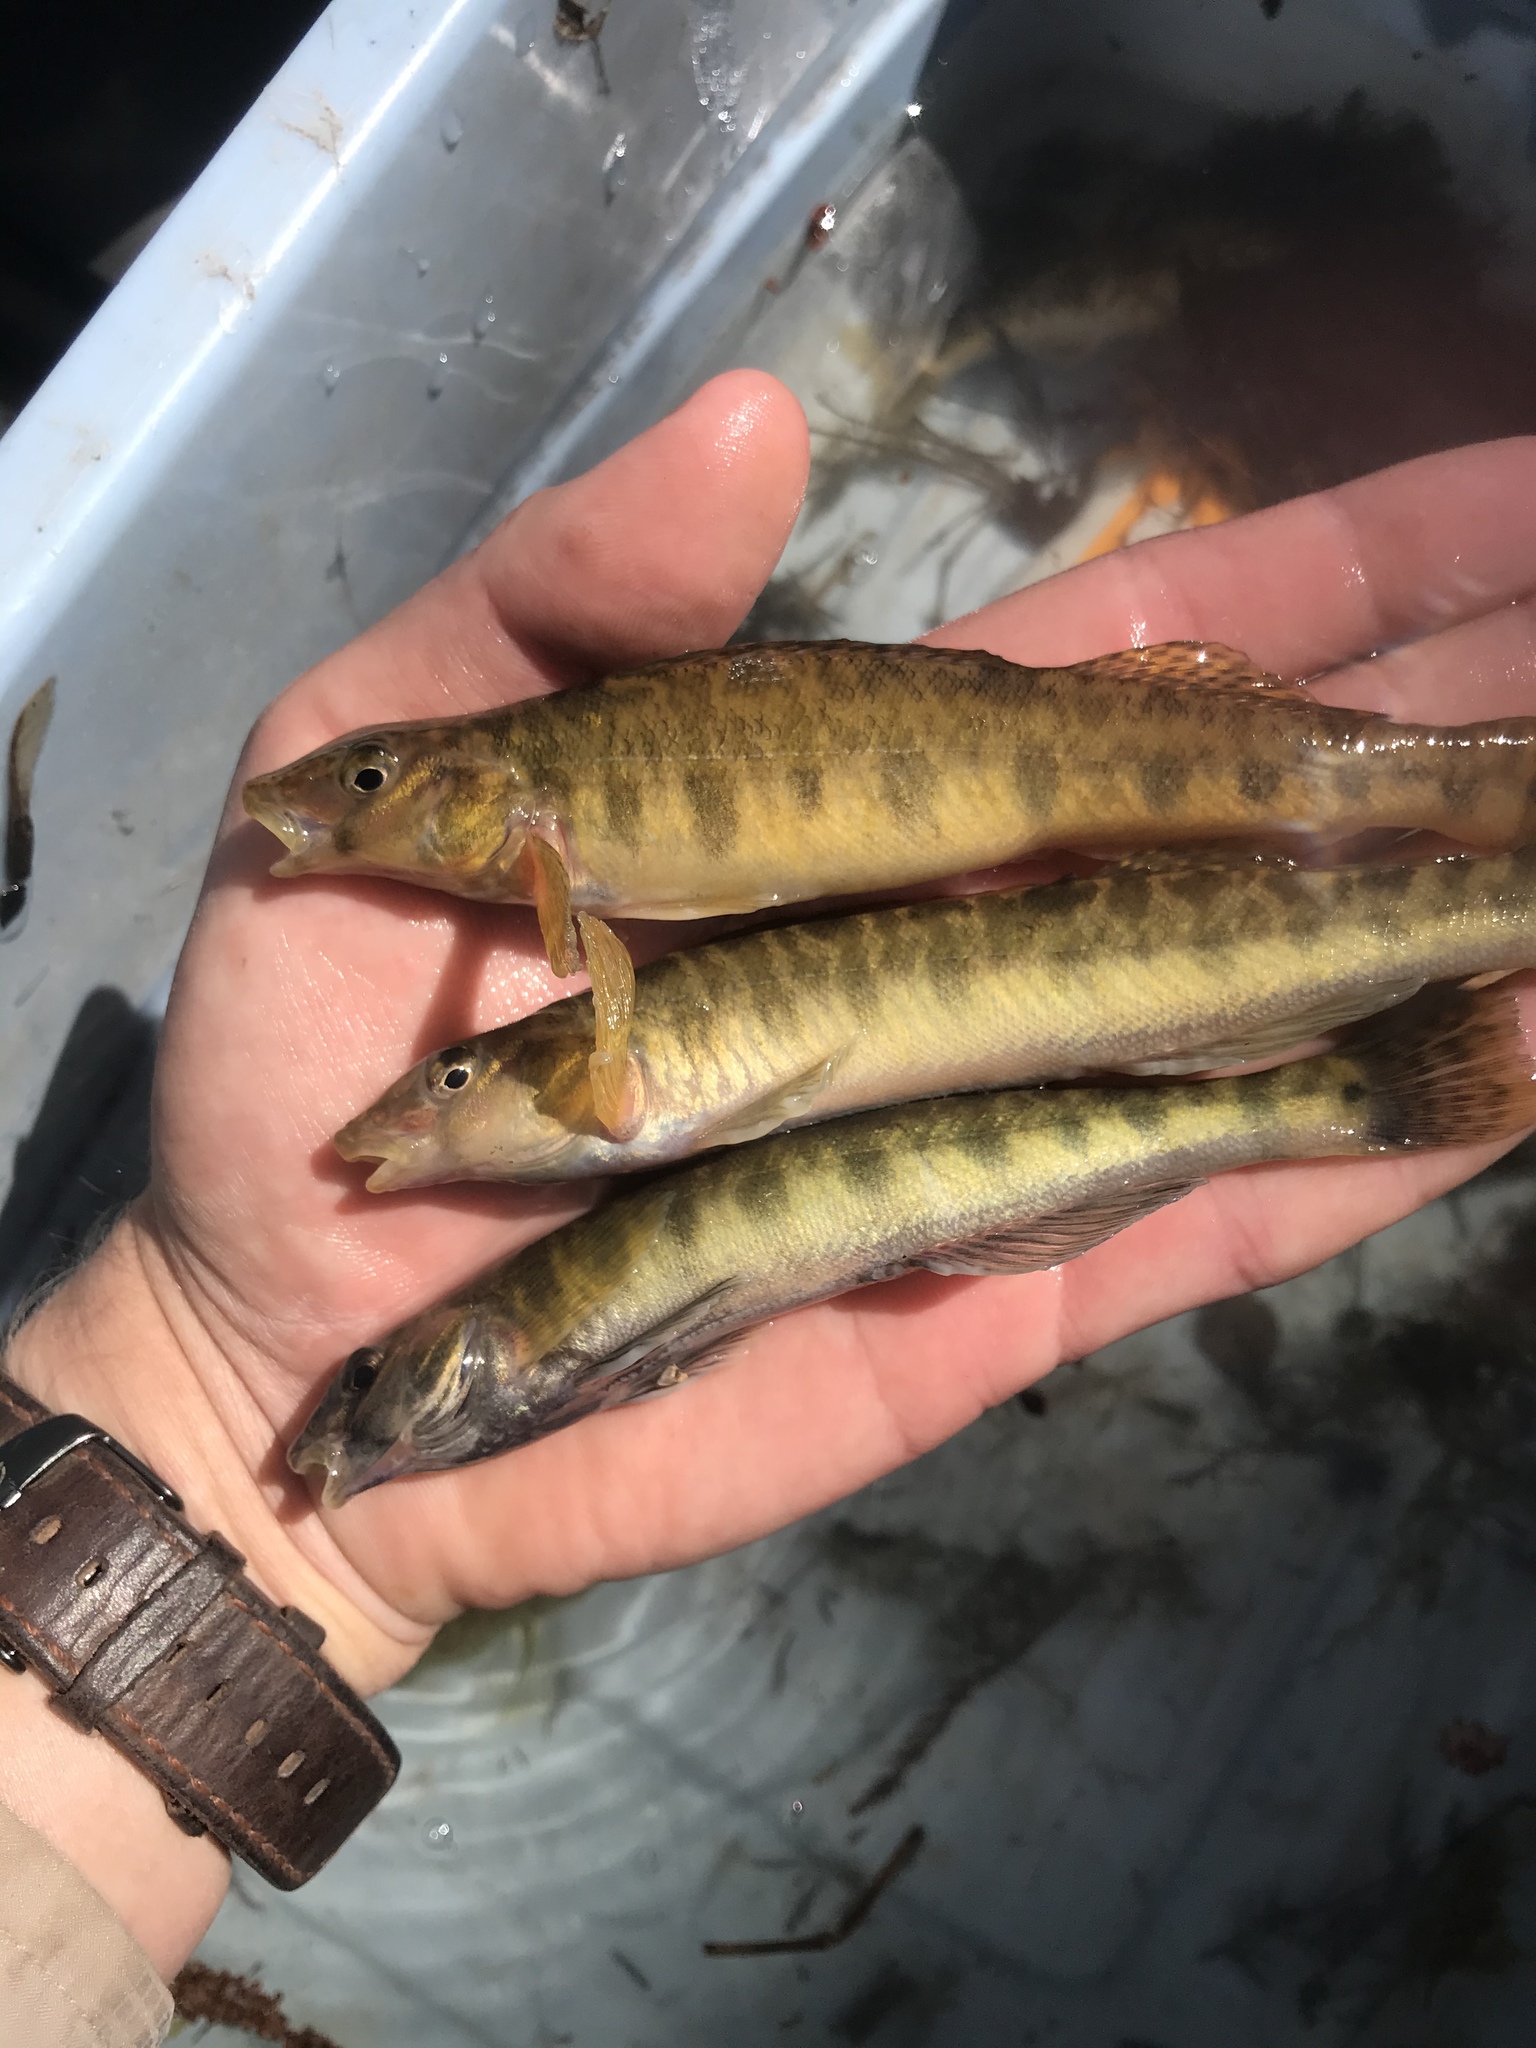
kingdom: Animalia
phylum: Chordata
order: Perciformes
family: Percidae
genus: Percina
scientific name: Percina carbonaria
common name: Texas logperch
